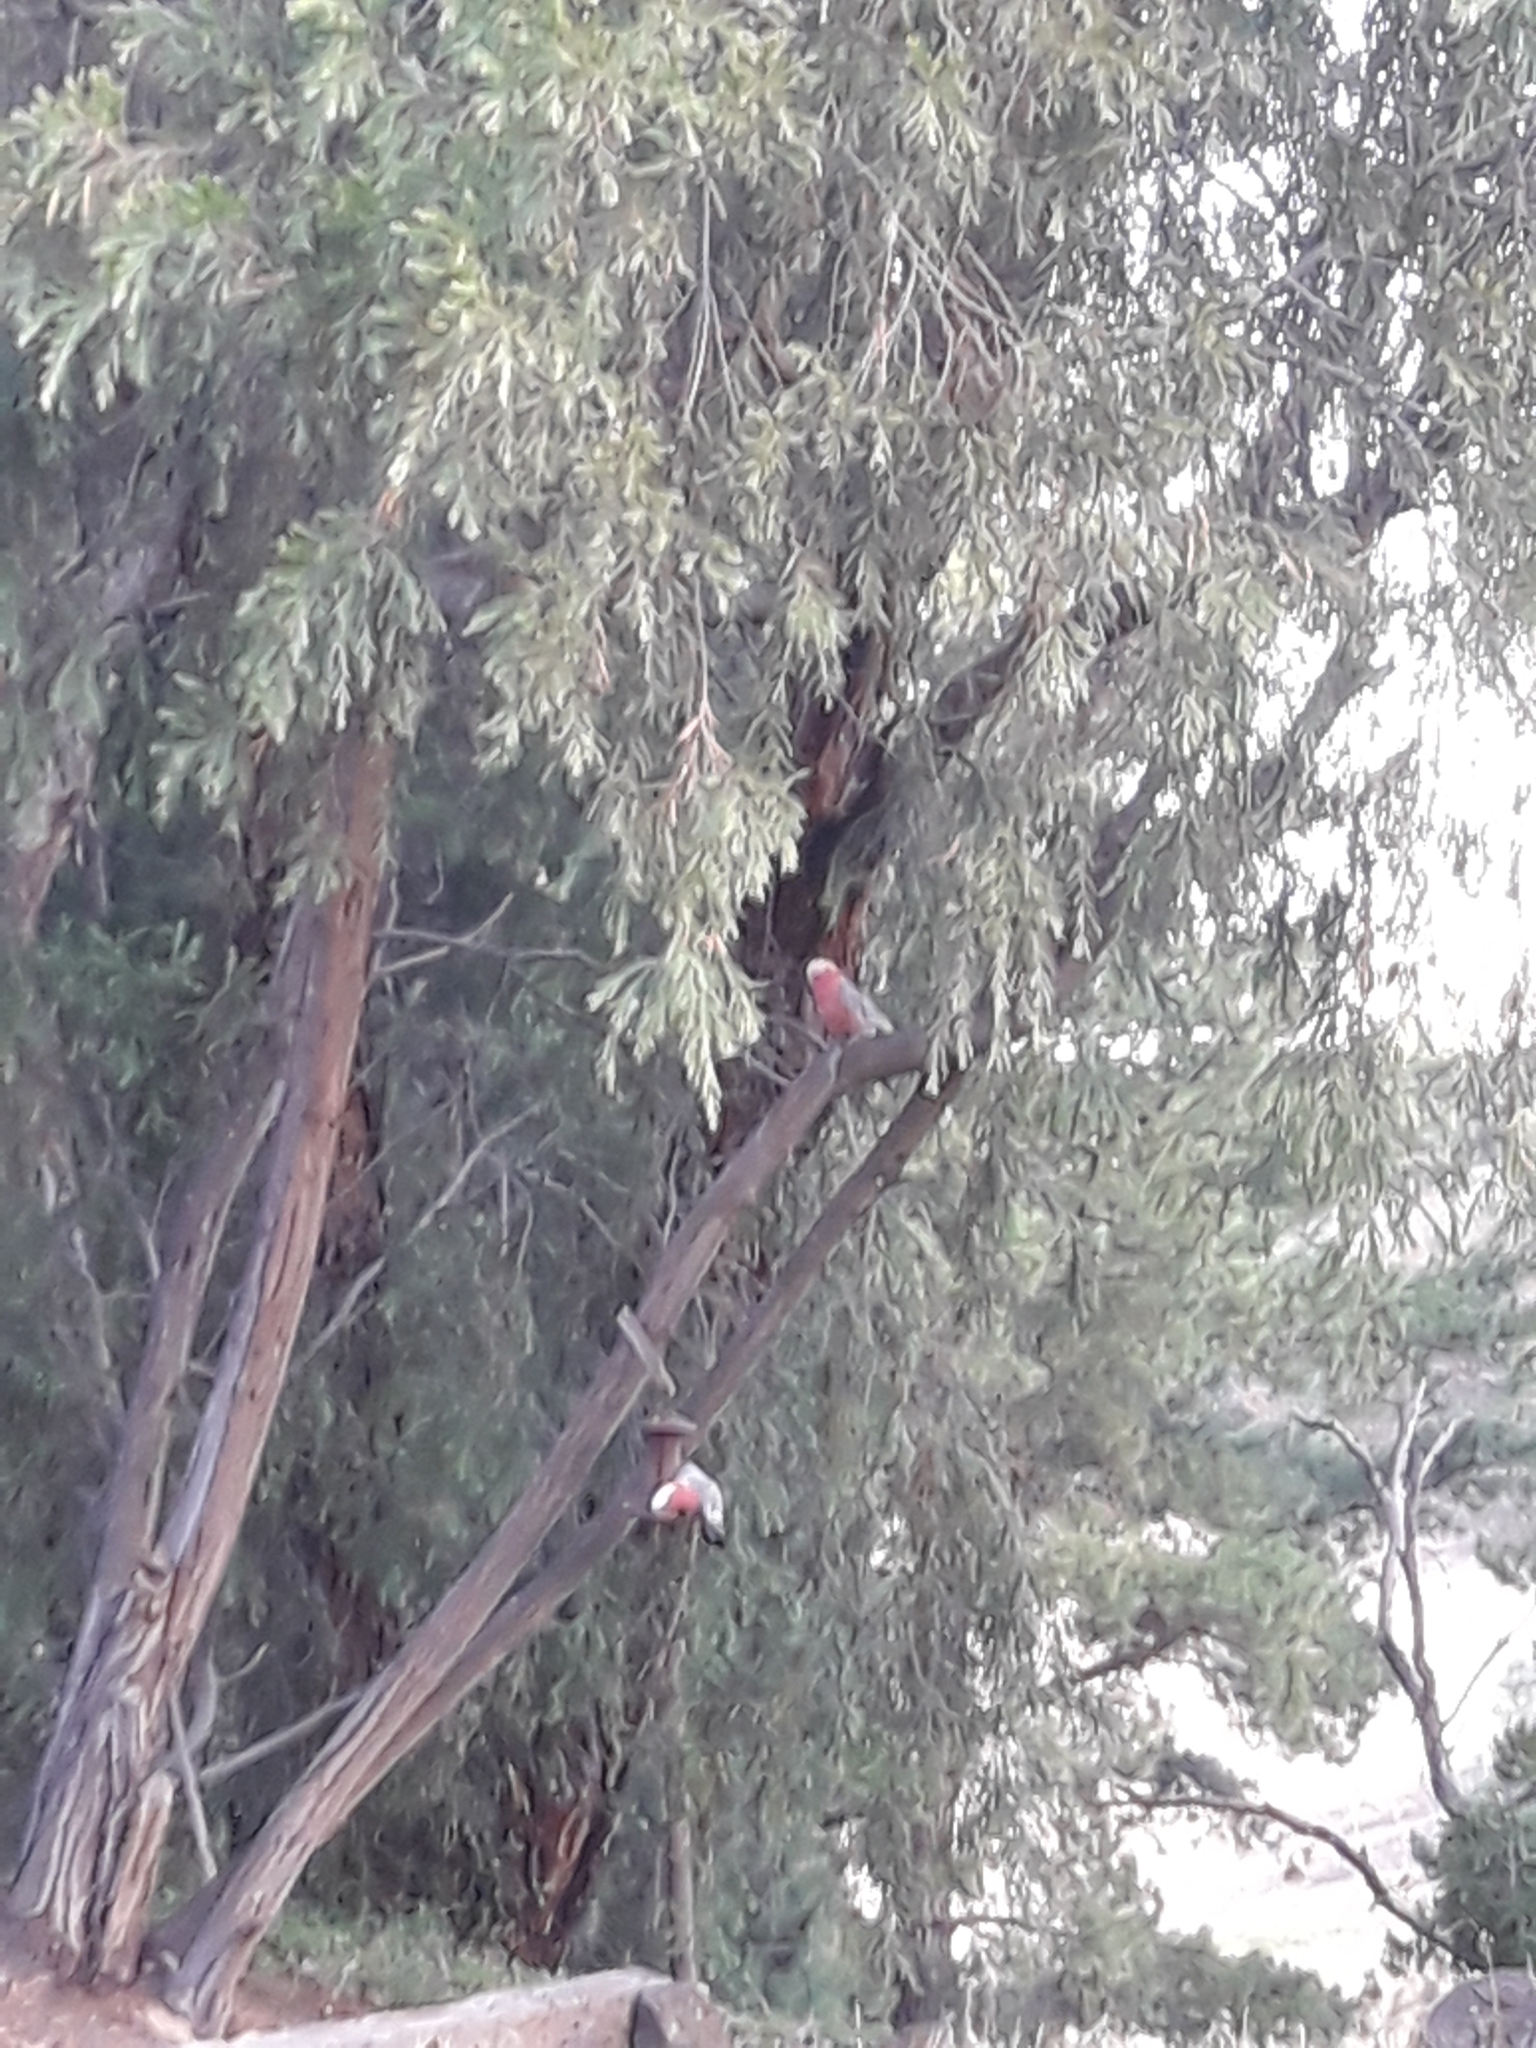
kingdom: Animalia
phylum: Chordata
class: Aves
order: Psittaciformes
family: Psittacidae
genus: Eolophus
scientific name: Eolophus roseicapilla
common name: Galah
